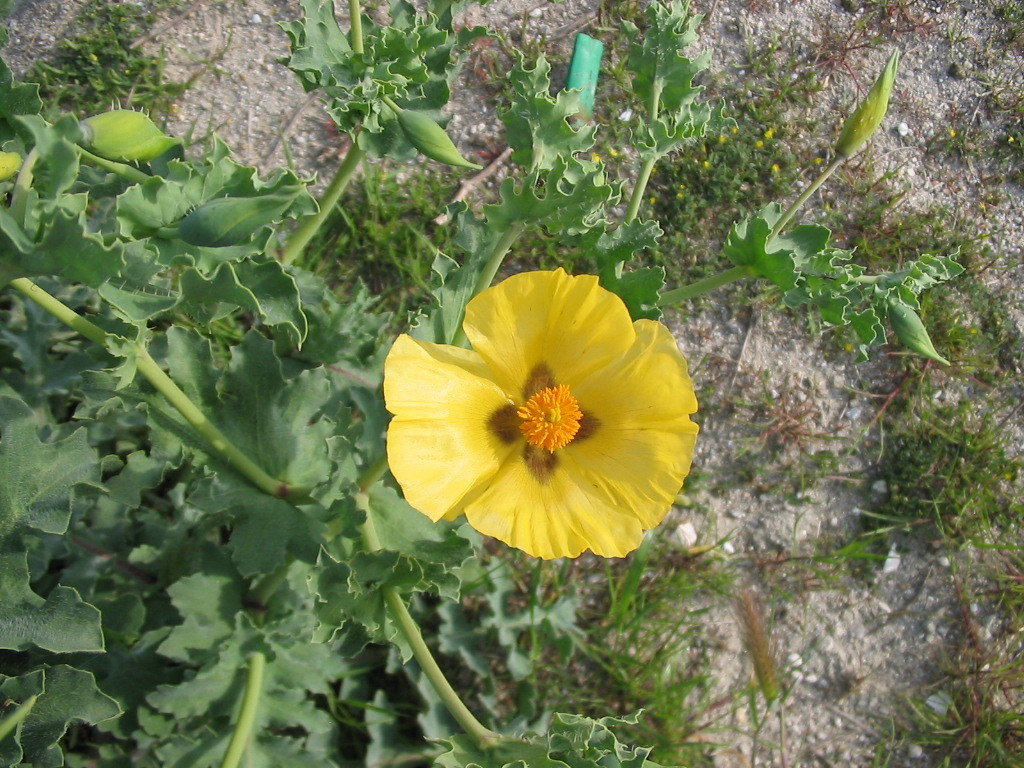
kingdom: Plantae
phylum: Tracheophyta
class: Magnoliopsida
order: Ranunculales
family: Papaveraceae
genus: Glaucium
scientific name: Glaucium flavum
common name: Yellow horned-poppy
